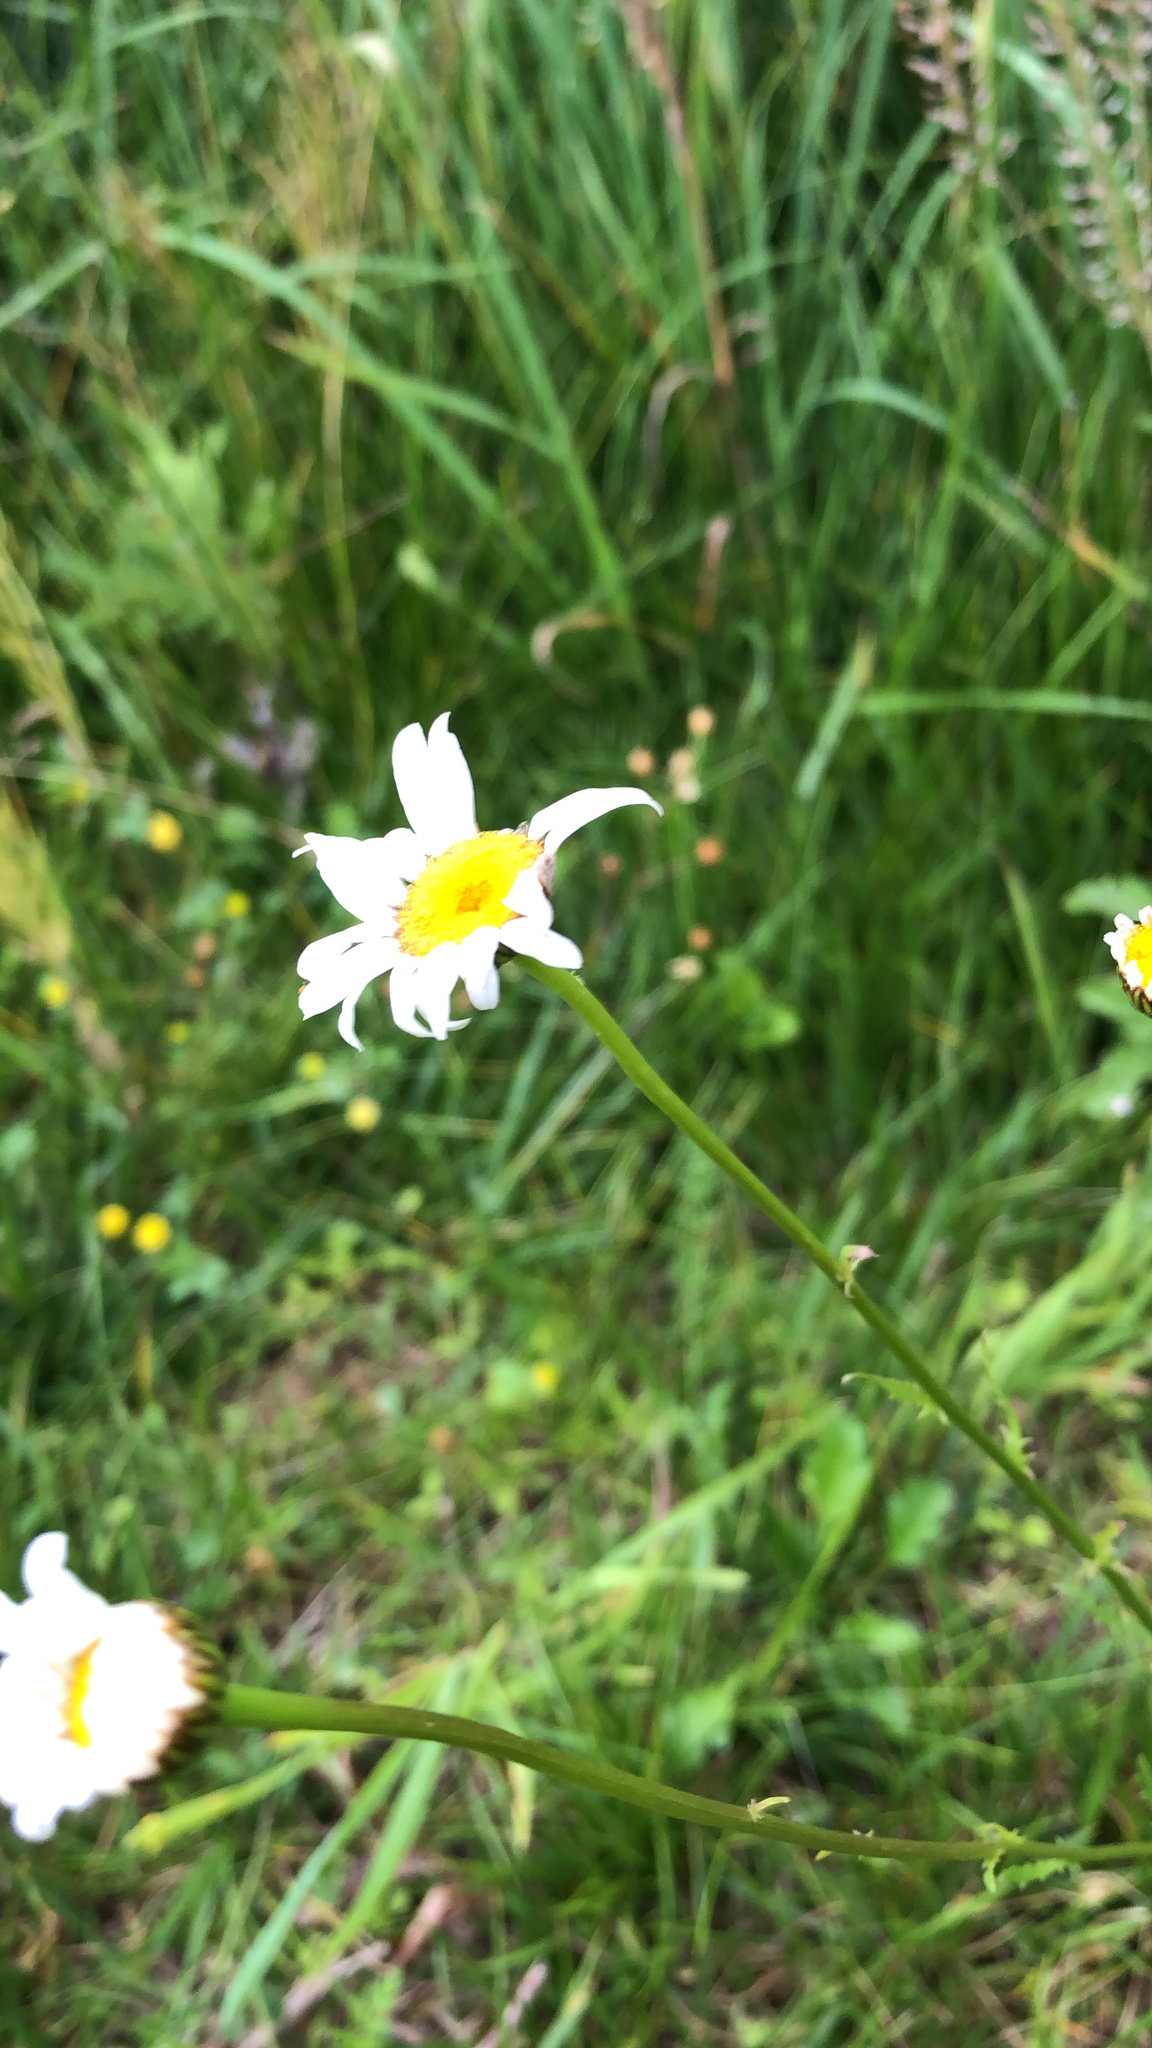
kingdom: Plantae
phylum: Tracheophyta
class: Magnoliopsida
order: Asterales
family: Asteraceae
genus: Leucanthemum
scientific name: Leucanthemum vulgare
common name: Oxeye daisy
